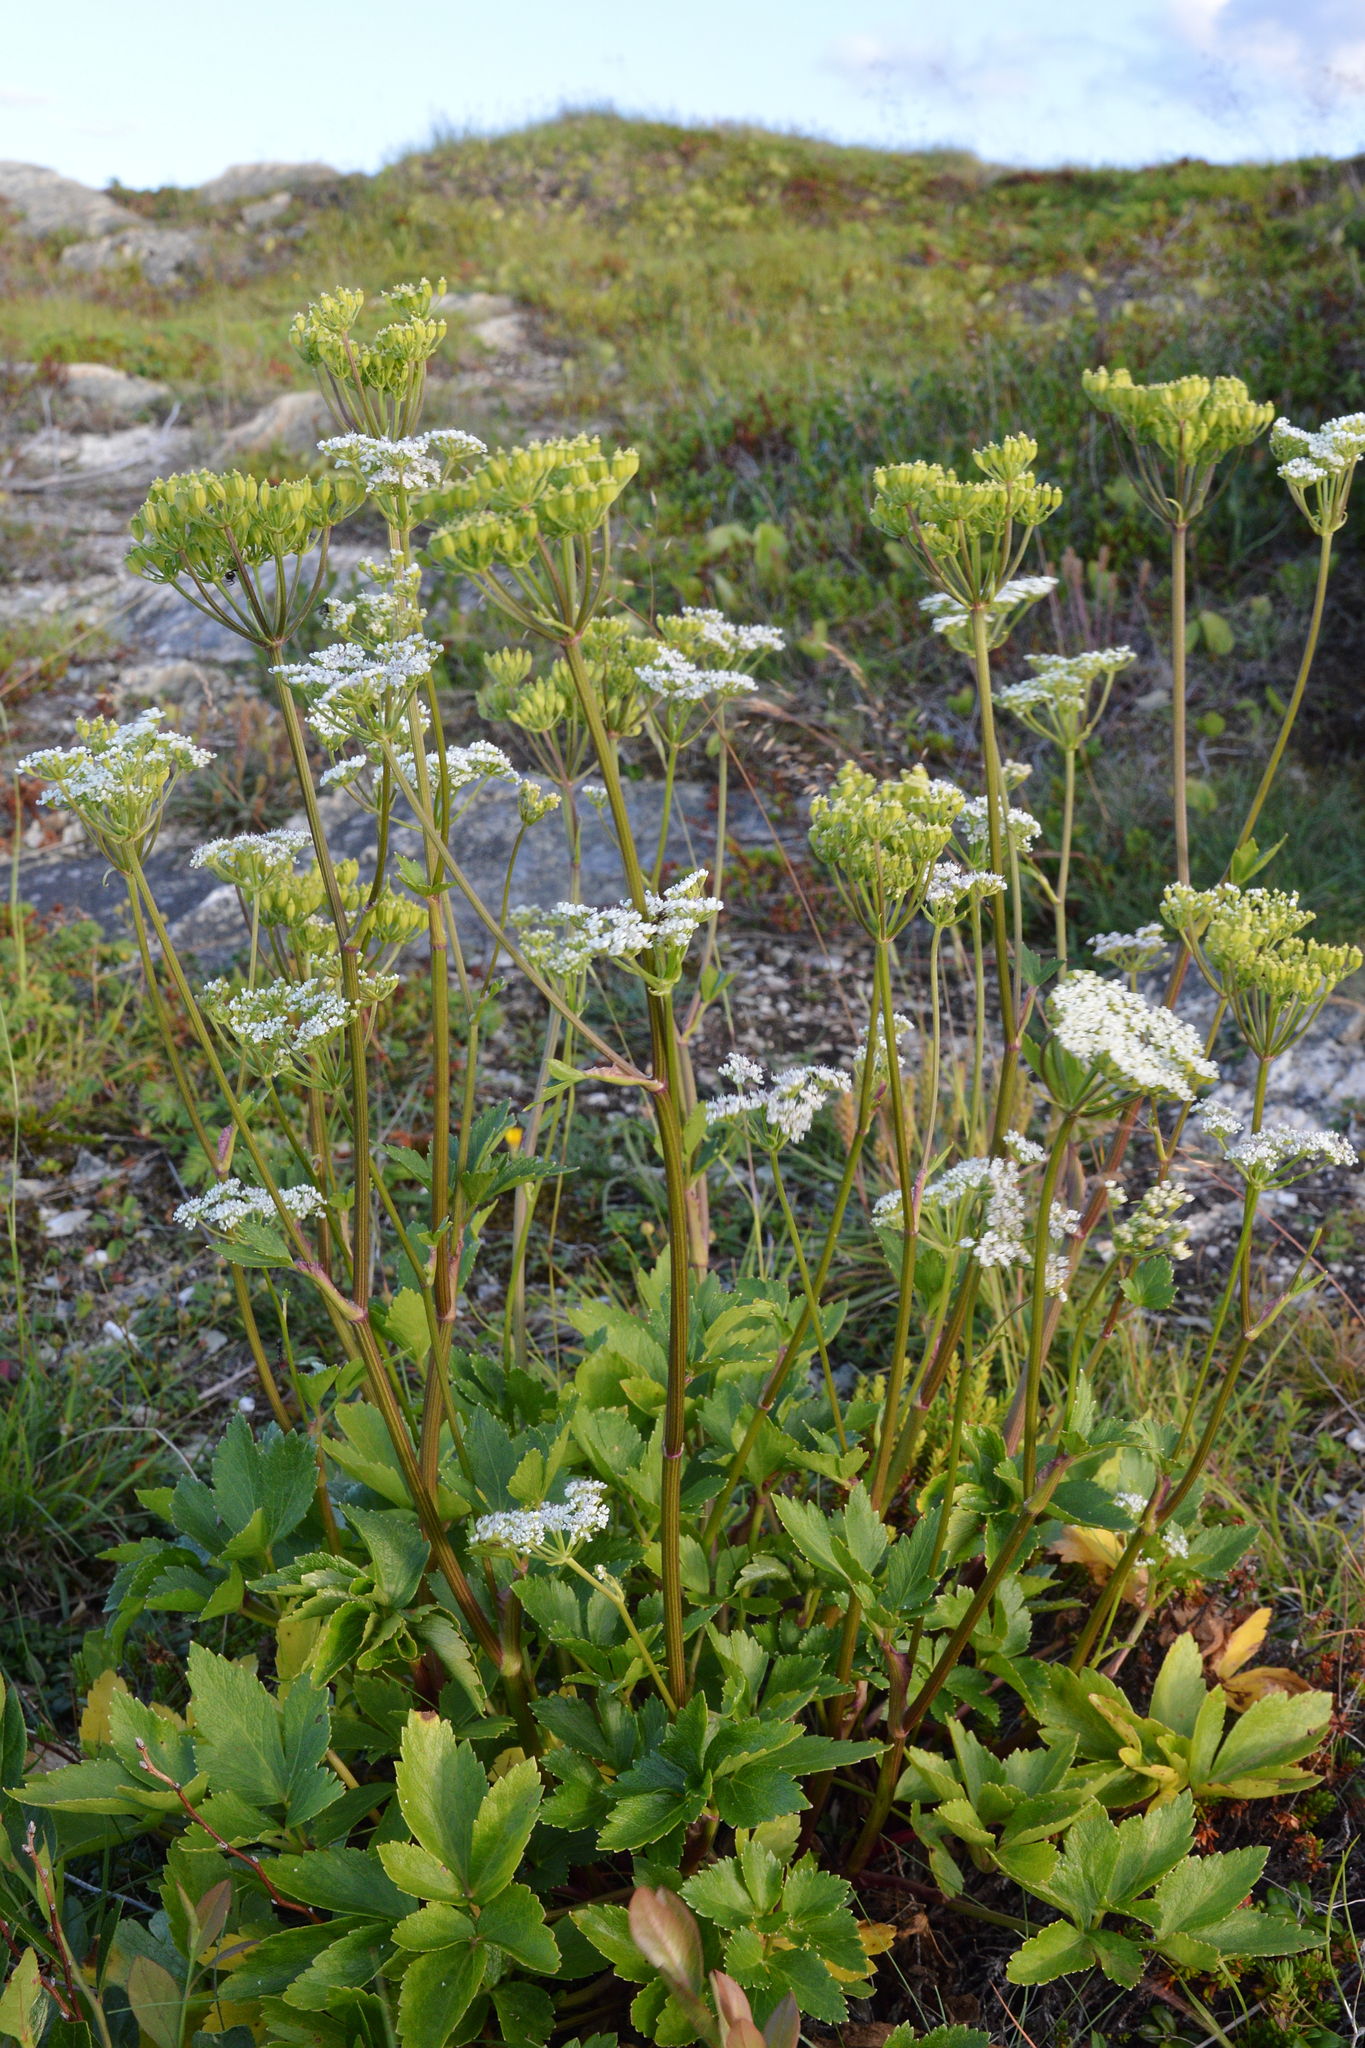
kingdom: Plantae
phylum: Tracheophyta
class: Magnoliopsida
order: Apiales
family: Apiaceae
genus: Ligusticum
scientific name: Ligusticum scothicum
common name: Beach lovage
